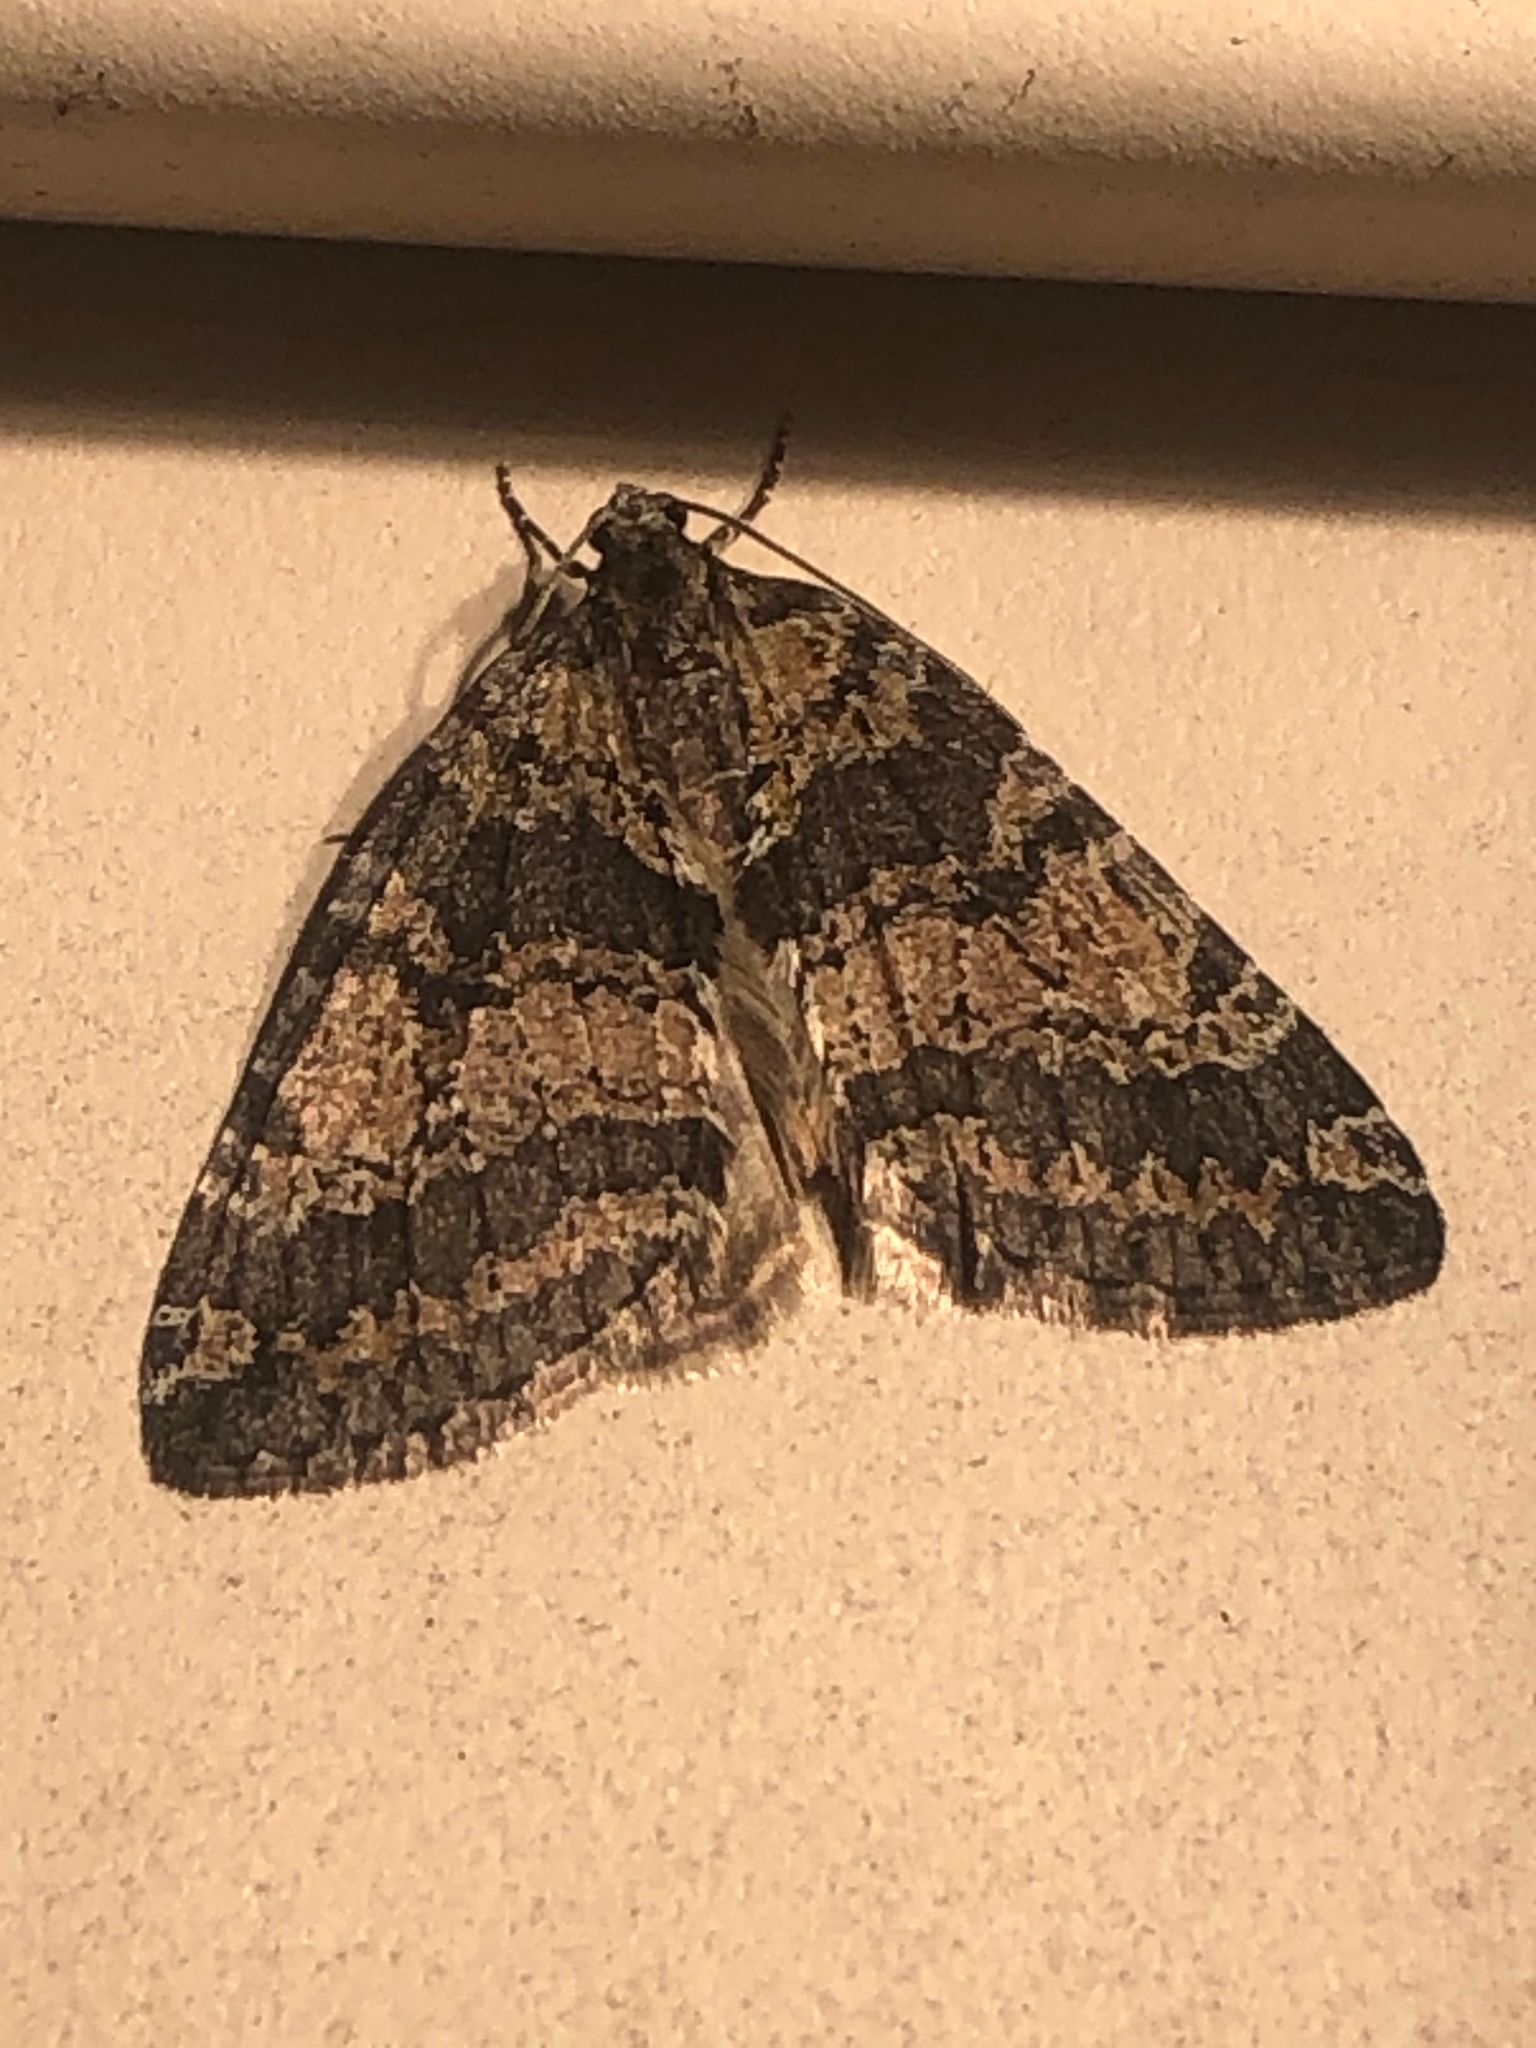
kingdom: Animalia
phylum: Arthropoda
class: Insecta
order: Lepidoptera
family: Geometridae
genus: Hydriomena
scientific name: Hydriomena nubilofasciata
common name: Oak winter highflier moth
